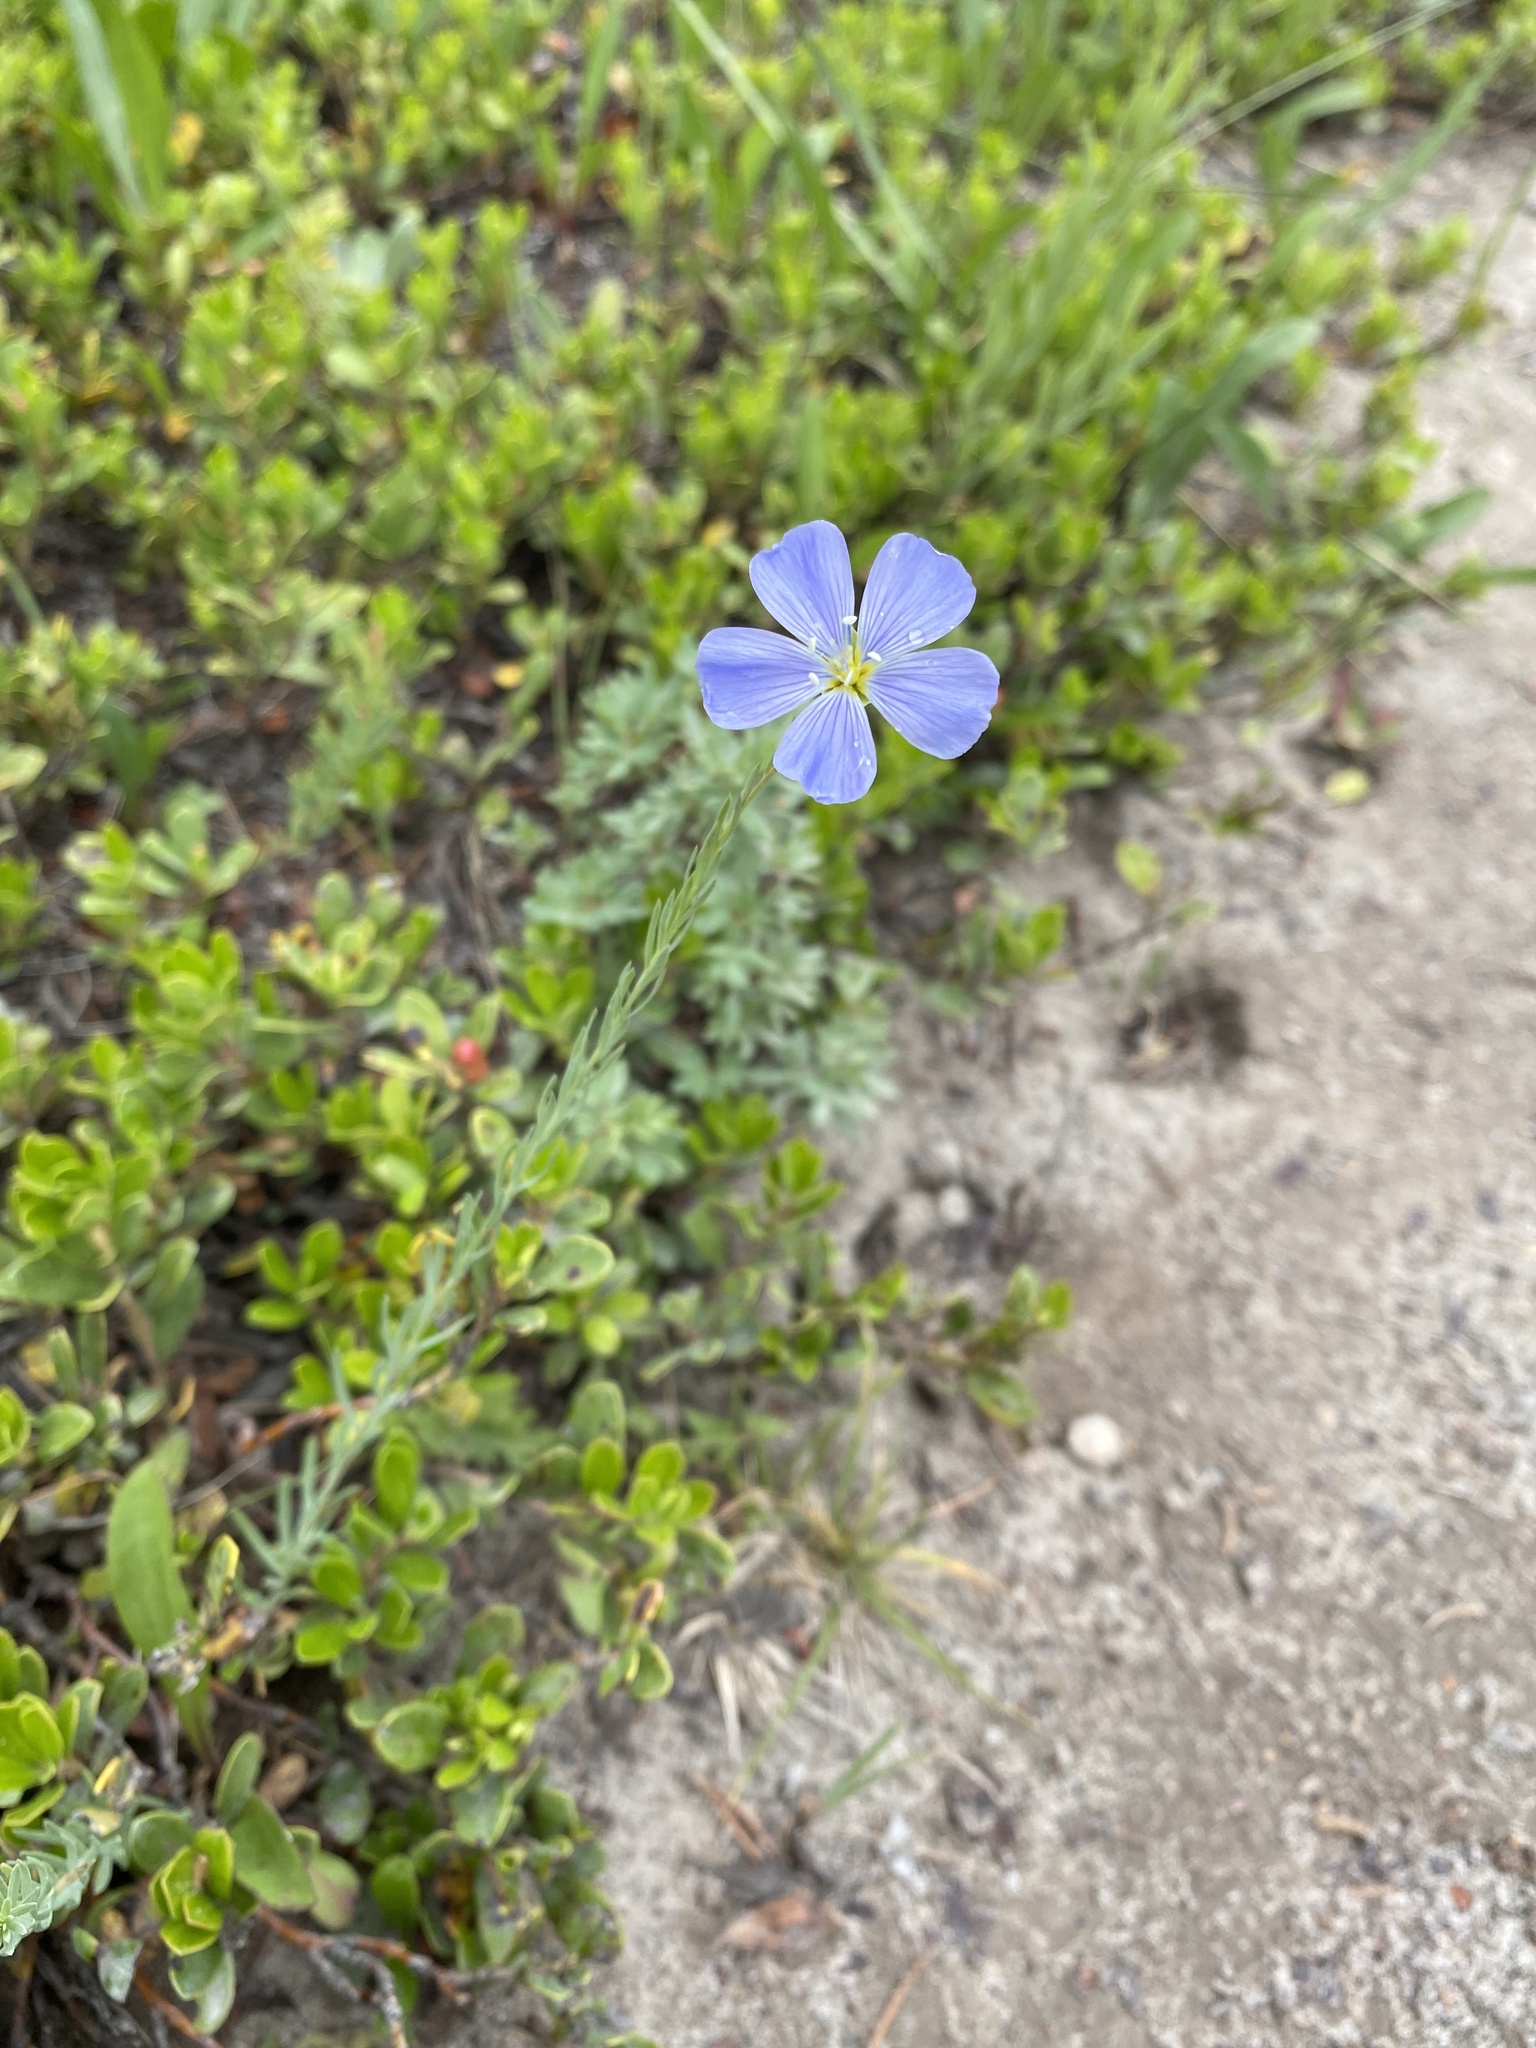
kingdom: Plantae
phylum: Tracheophyta
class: Magnoliopsida
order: Malpighiales
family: Linaceae
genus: Linum
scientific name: Linum lewisii
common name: Prairie flax
